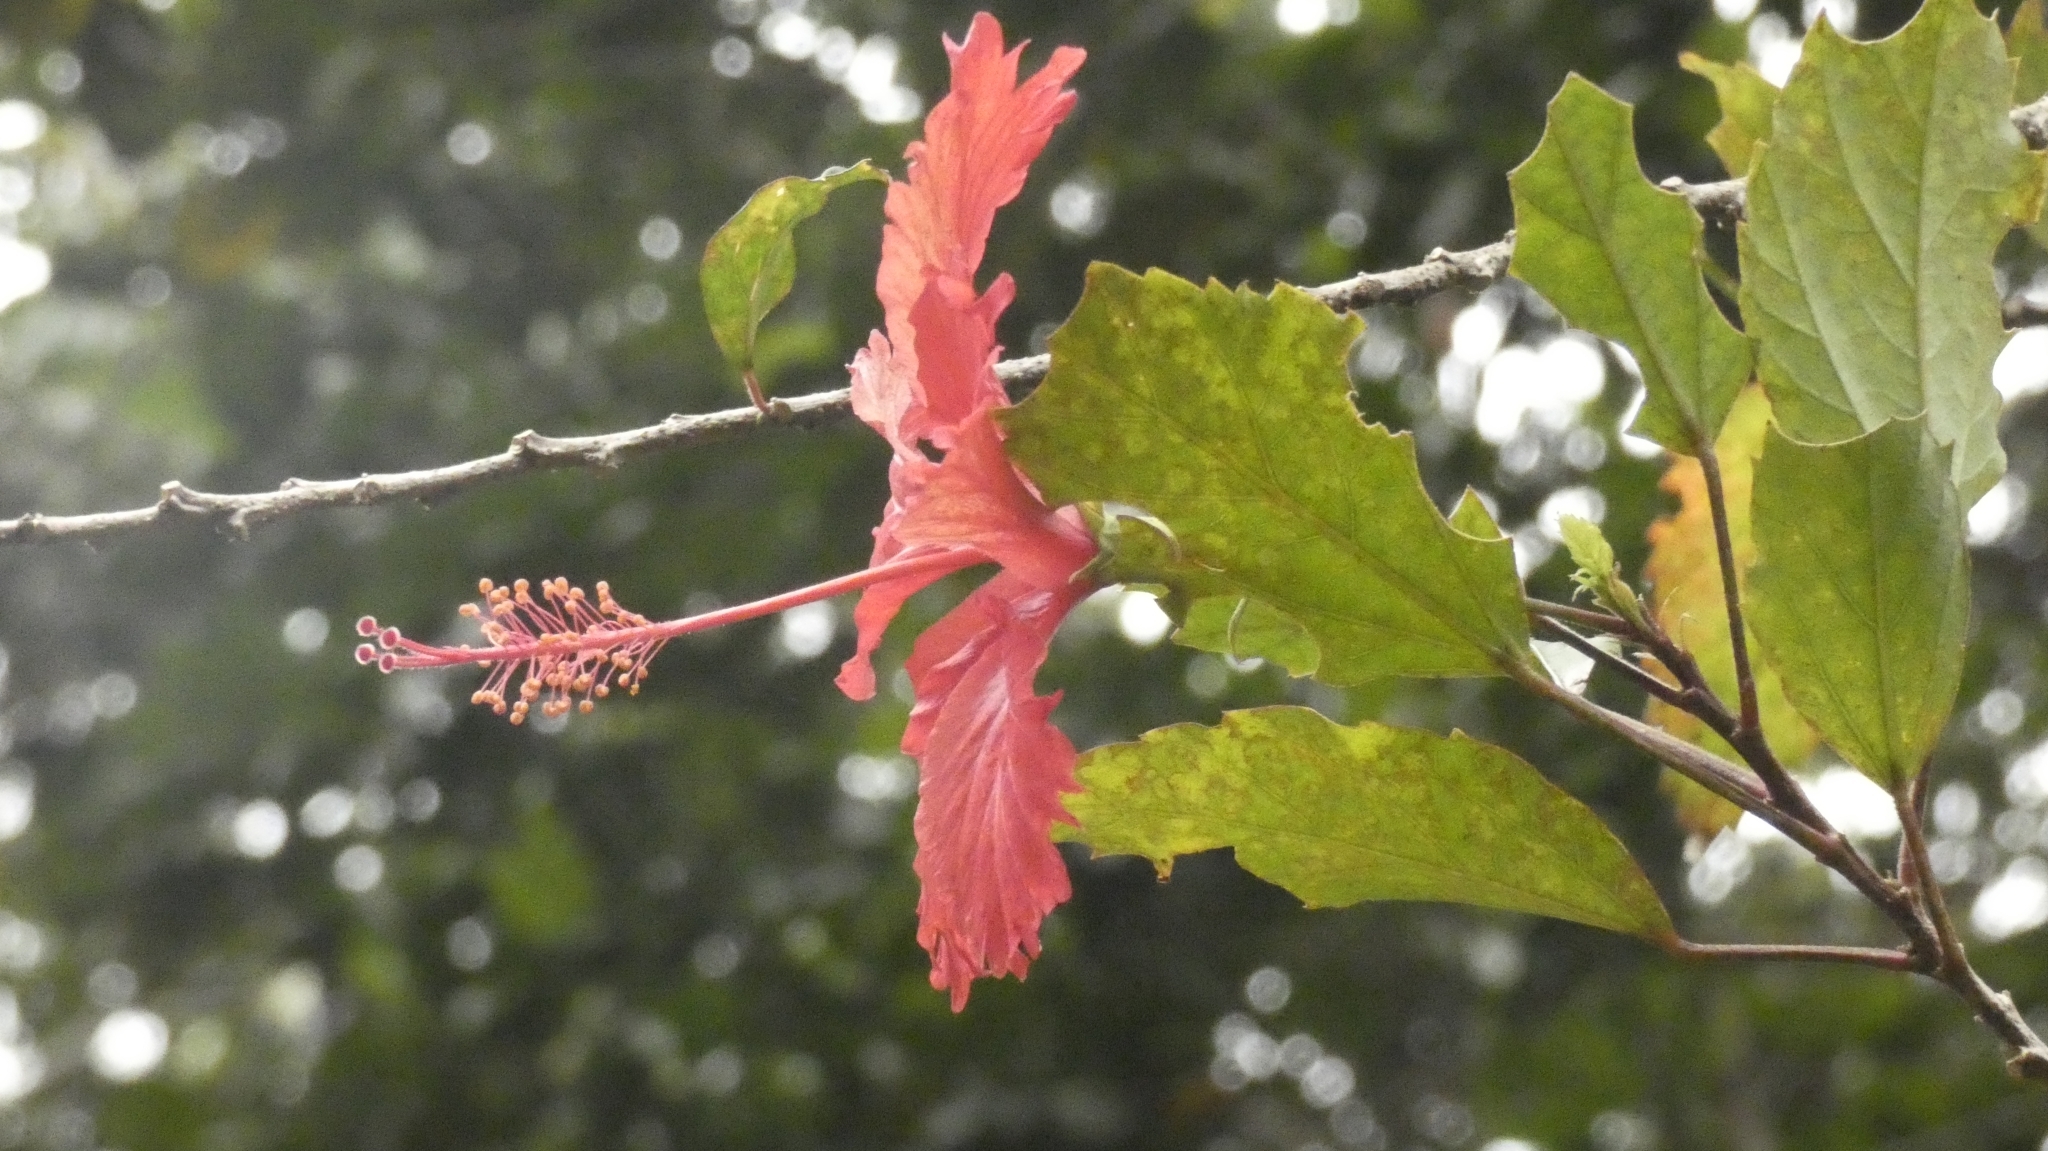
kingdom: Plantae
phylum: Tracheophyta
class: Magnoliopsida
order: Malvales
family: Malvaceae
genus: Hibiscus
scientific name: Hibiscus archeri
